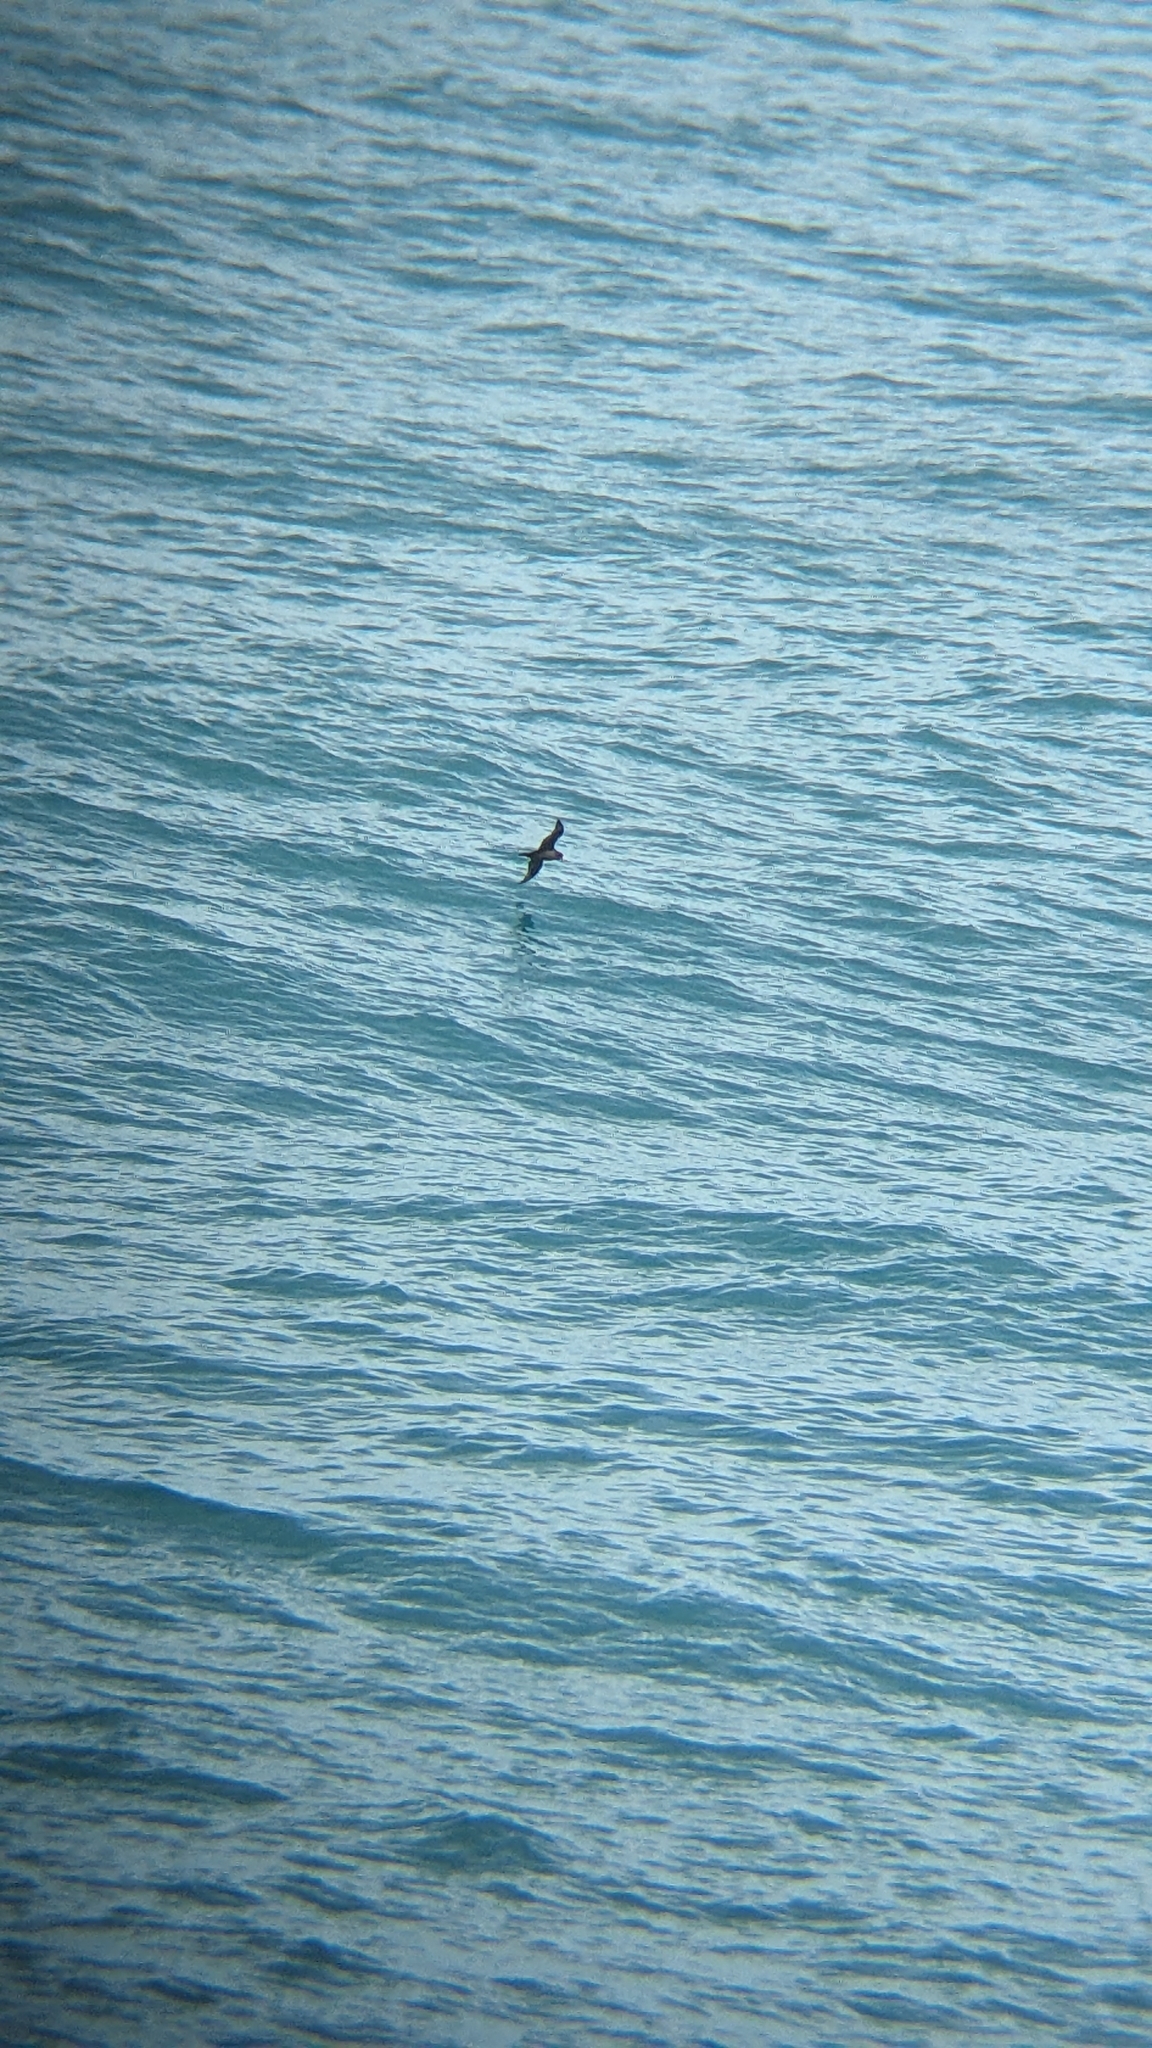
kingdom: Animalia
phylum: Chordata
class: Aves
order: Procellariiformes
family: Procellariidae
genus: Puffinus
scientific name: Puffinus carneipes
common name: Flesh-footed shearwater
